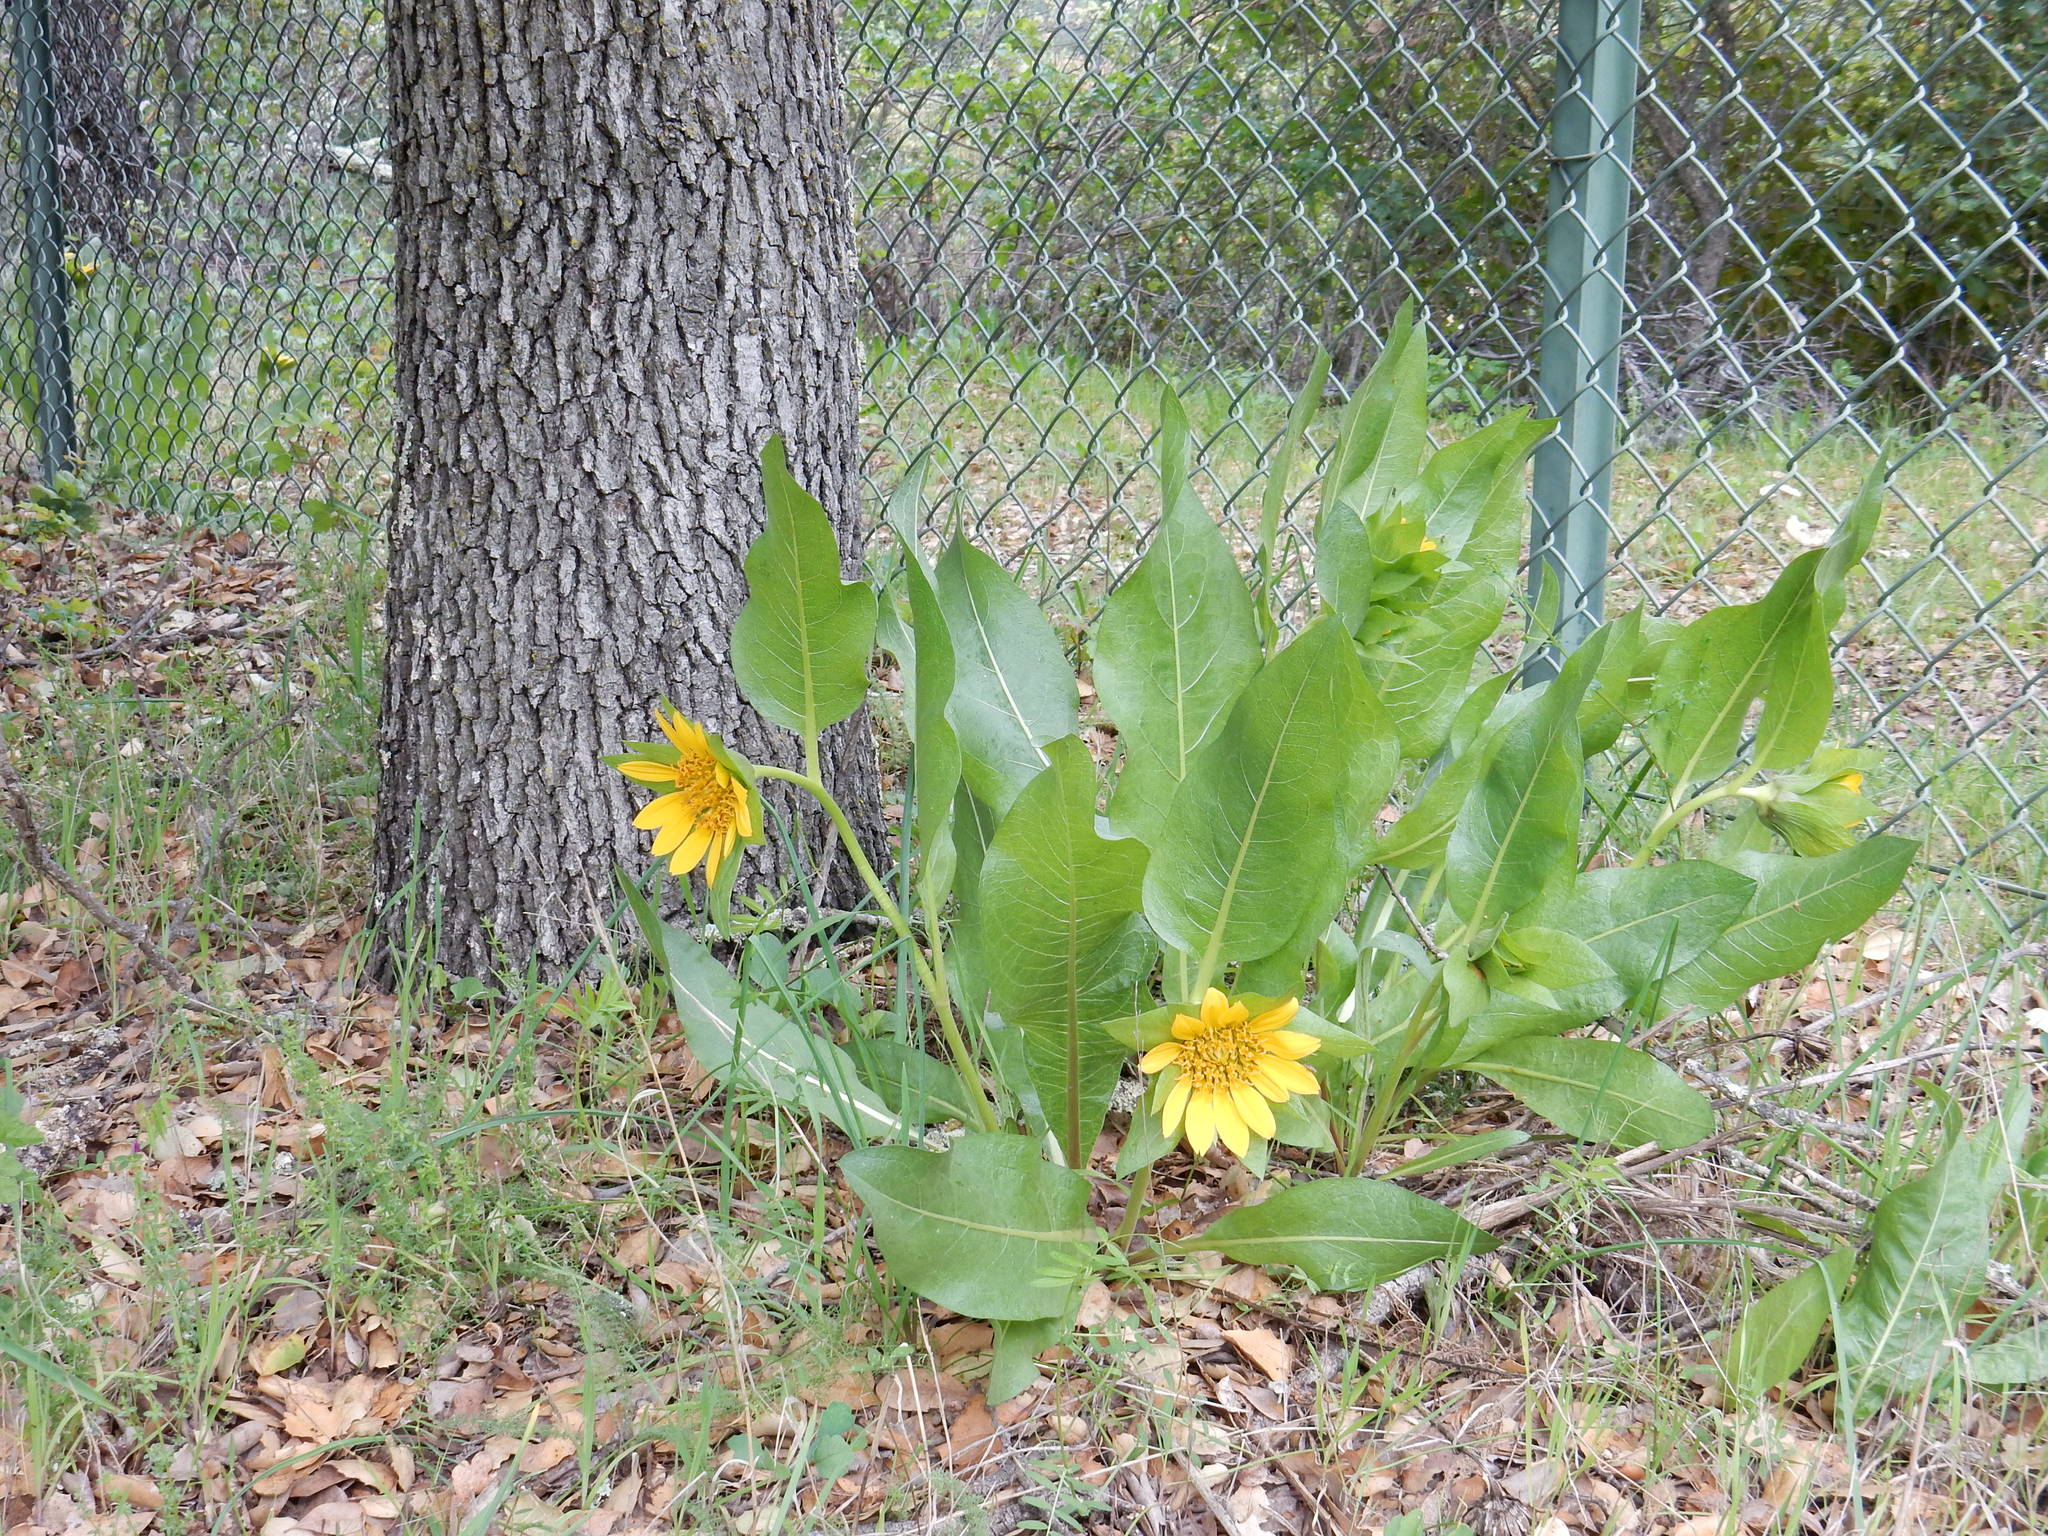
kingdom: Plantae
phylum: Tracheophyta
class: Magnoliopsida
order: Asterales
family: Asteraceae
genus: Wyethia
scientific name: Wyethia glabra
